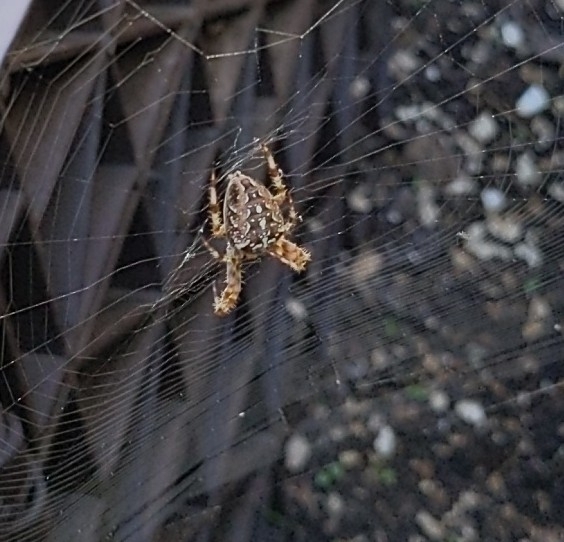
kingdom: Animalia
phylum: Arthropoda
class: Arachnida
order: Araneae
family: Araneidae
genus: Araneus
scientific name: Araneus diadematus
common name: Cross orbweaver
